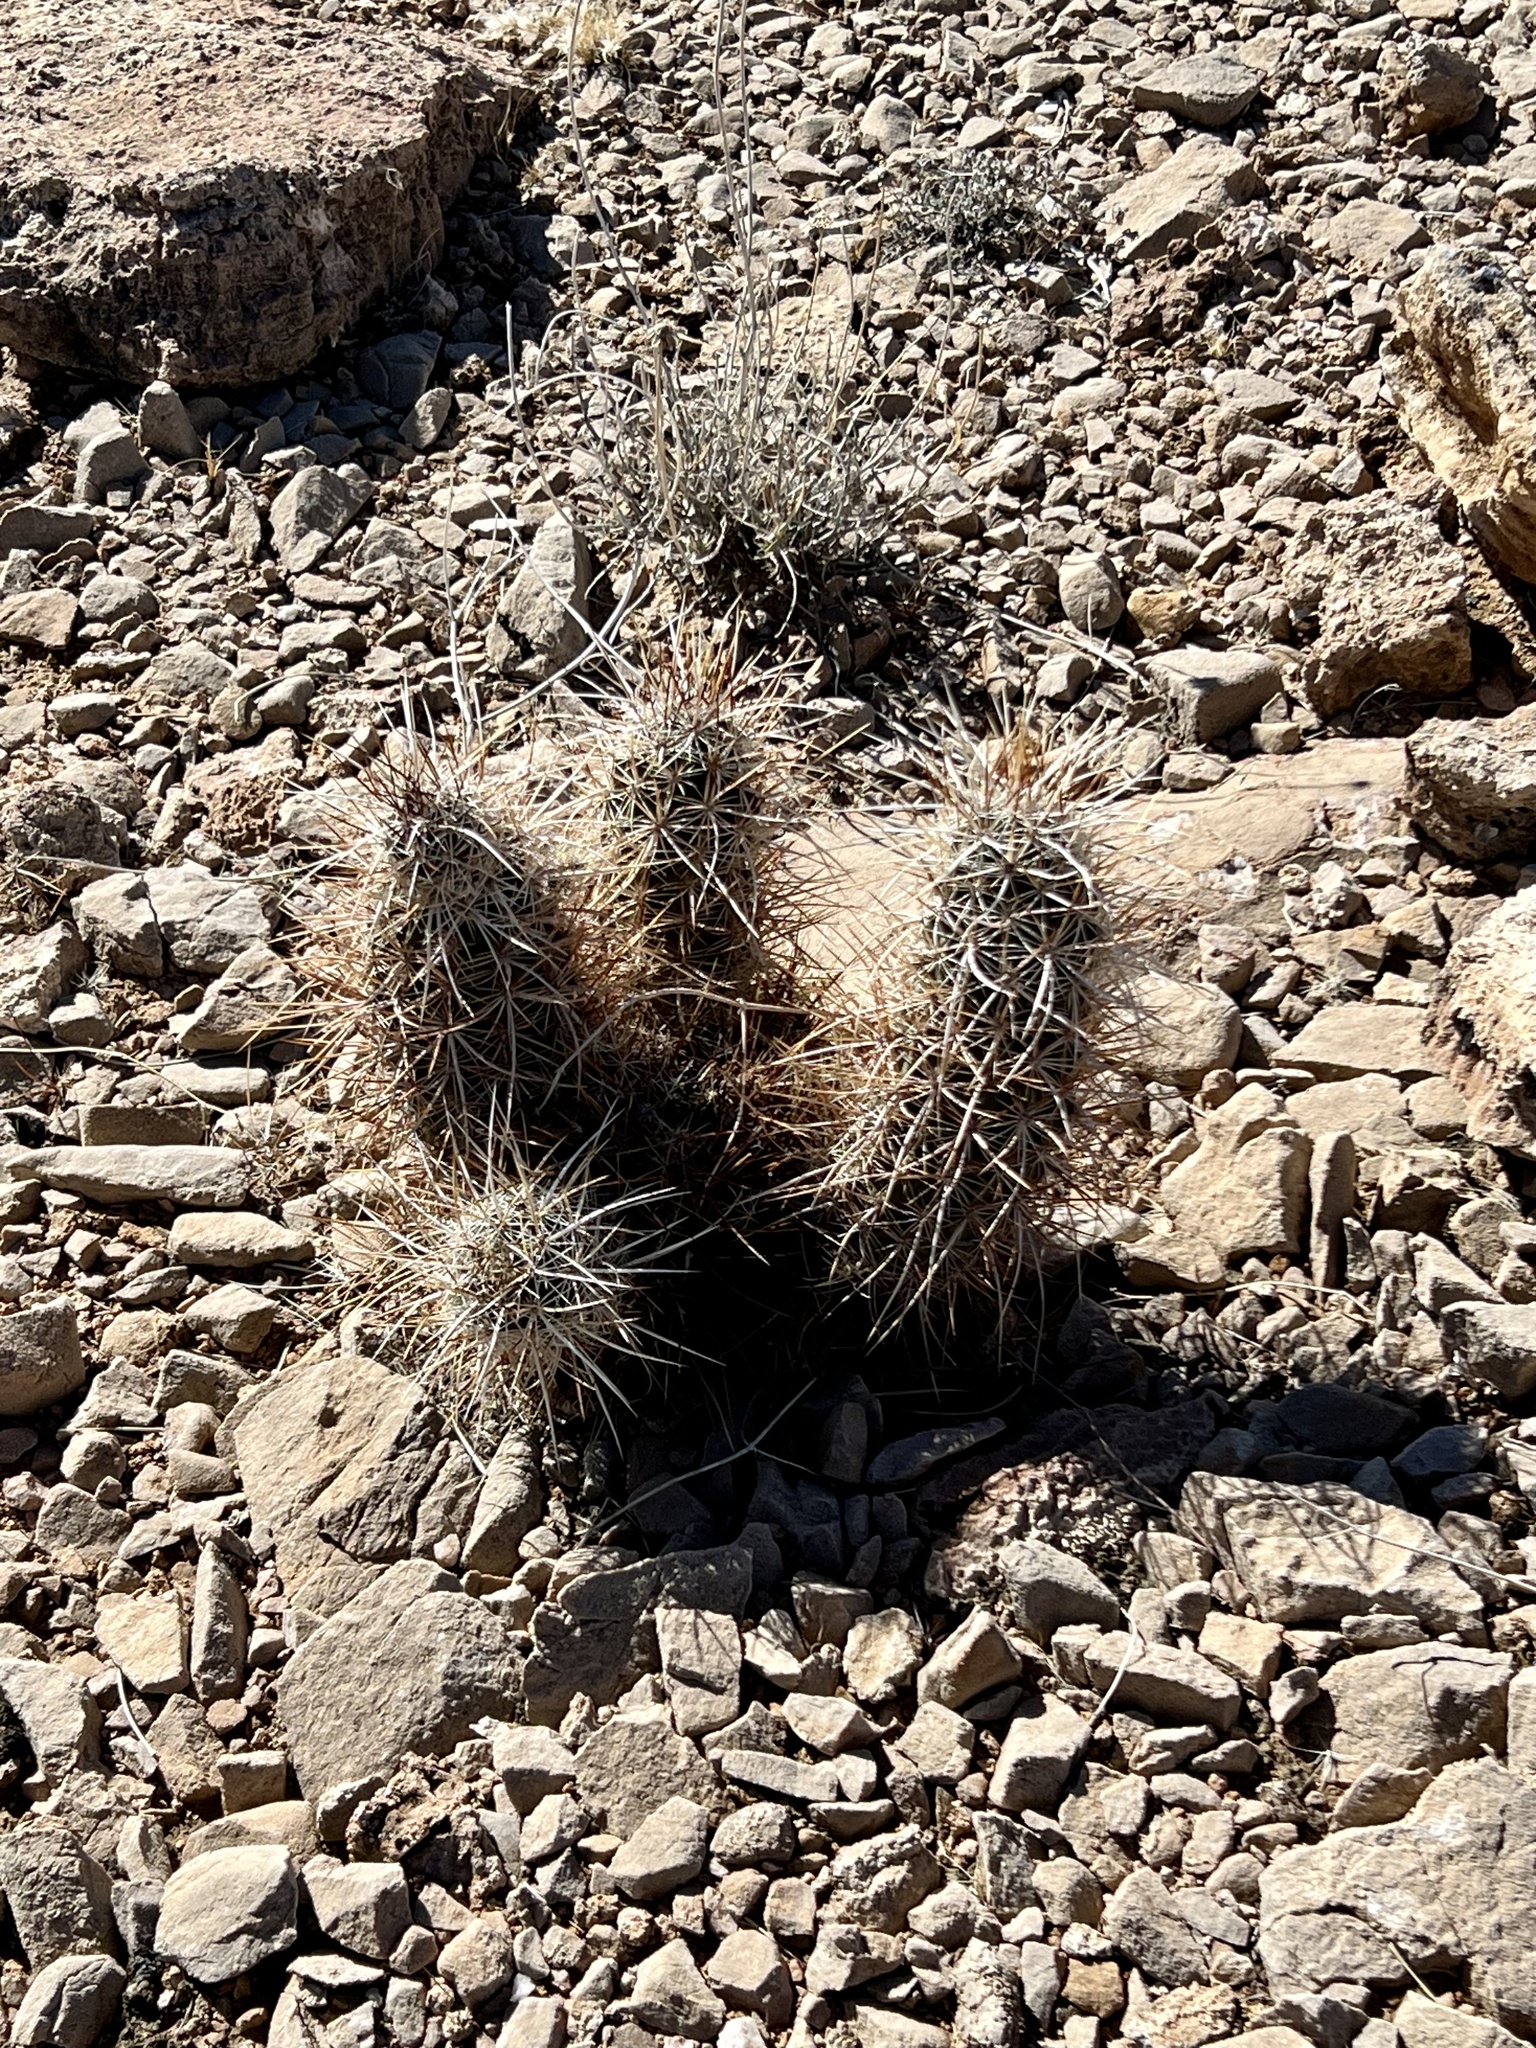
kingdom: Plantae
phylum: Tracheophyta
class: Magnoliopsida
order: Caryophyllales
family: Cactaceae
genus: Echinocereus
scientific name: Echinocereus engelmannii
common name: Engelmann's hedgehog cactus
